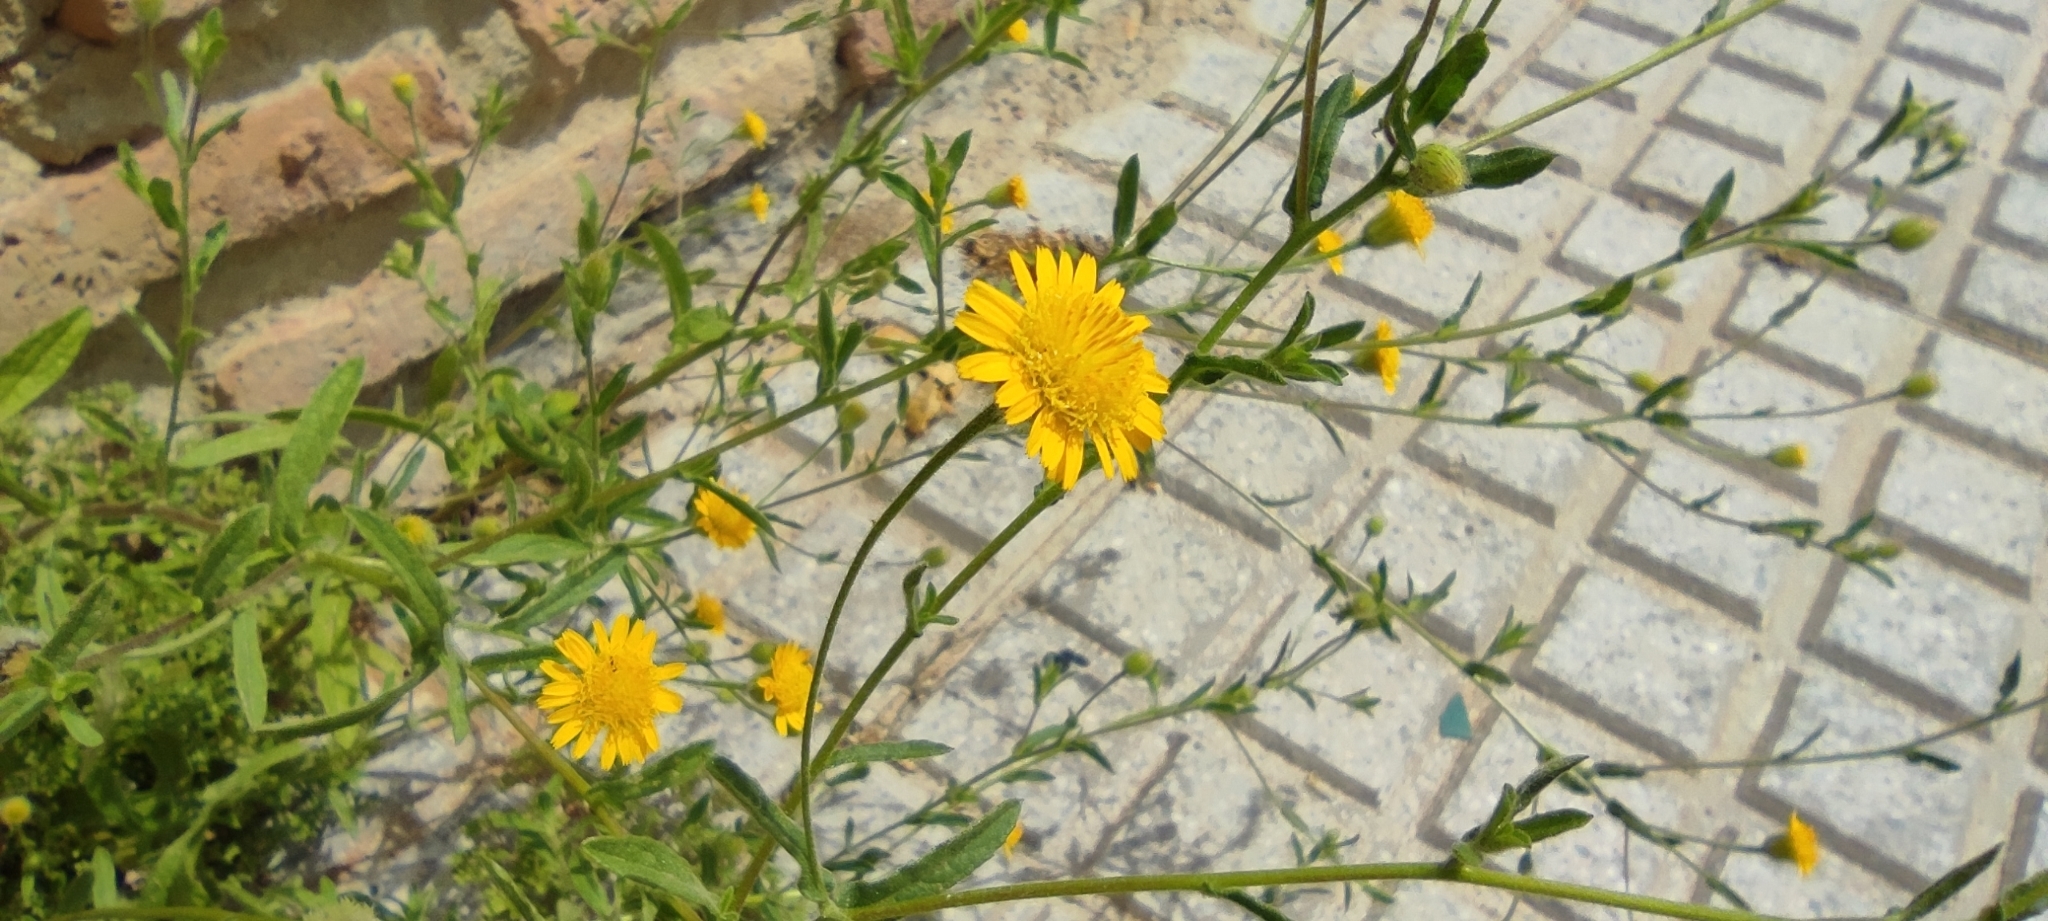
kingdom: Plantae
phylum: Tracheophyta
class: Magnoliopsida
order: Asterales
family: Asteraceae
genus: Pulicaria
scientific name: Pulicaria paludosa
